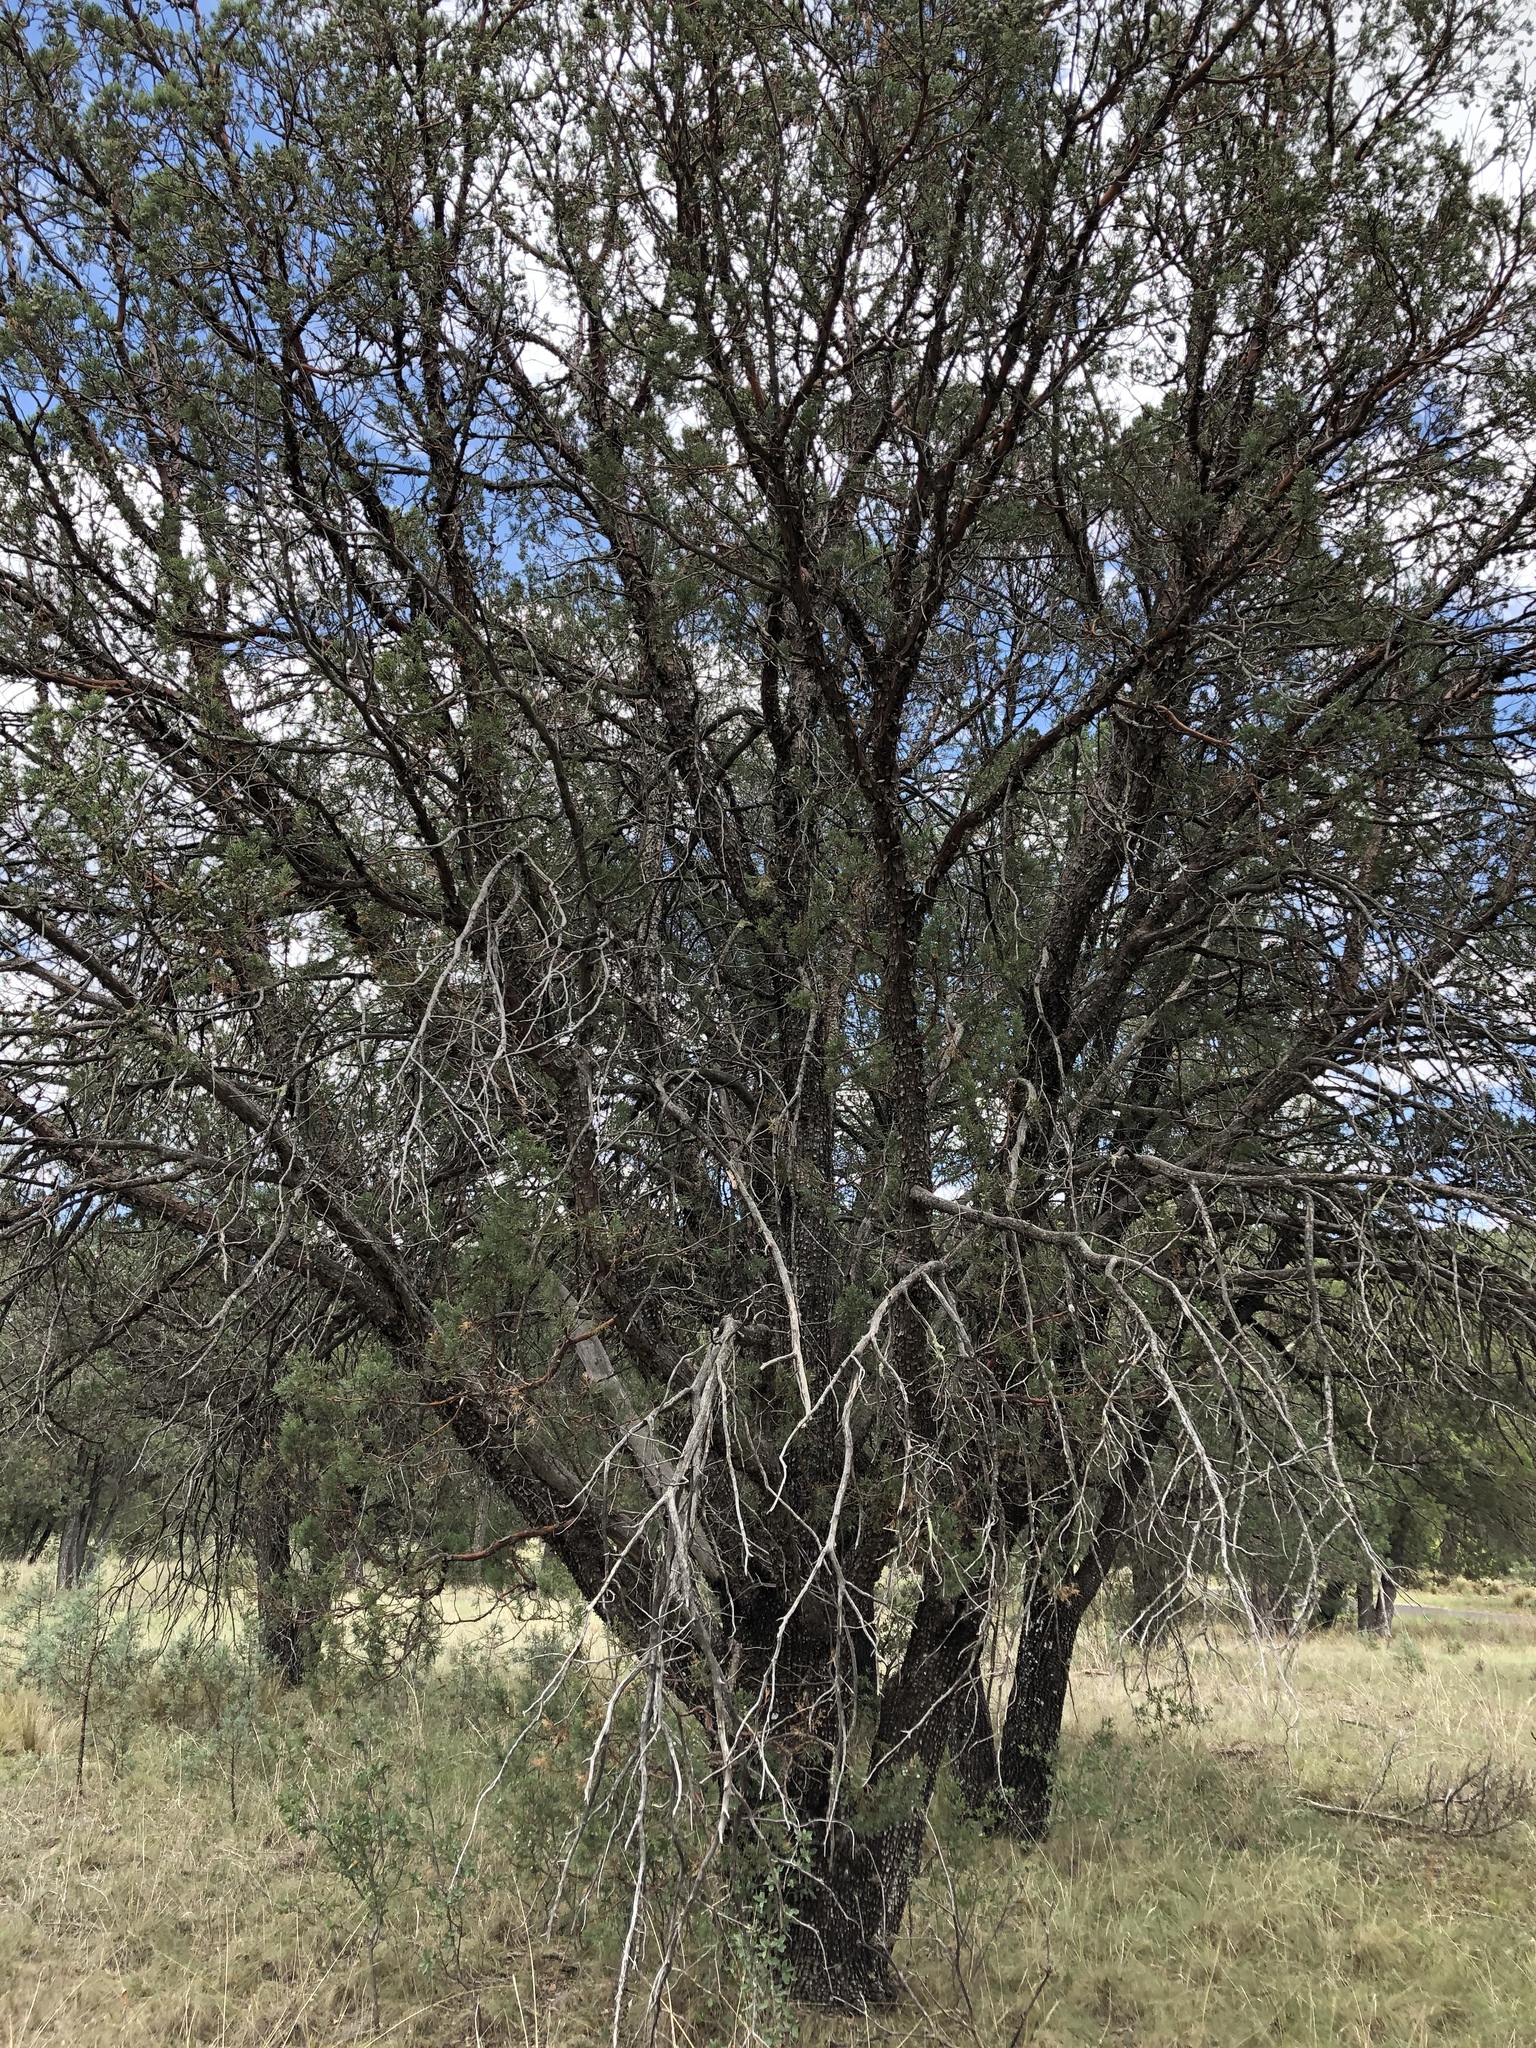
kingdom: Plantae
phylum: Tracheophyta
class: Pinopsida
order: Pinales
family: Cupressaceae
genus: Juniperus
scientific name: Juniperus deppeana
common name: Alligator juniper
